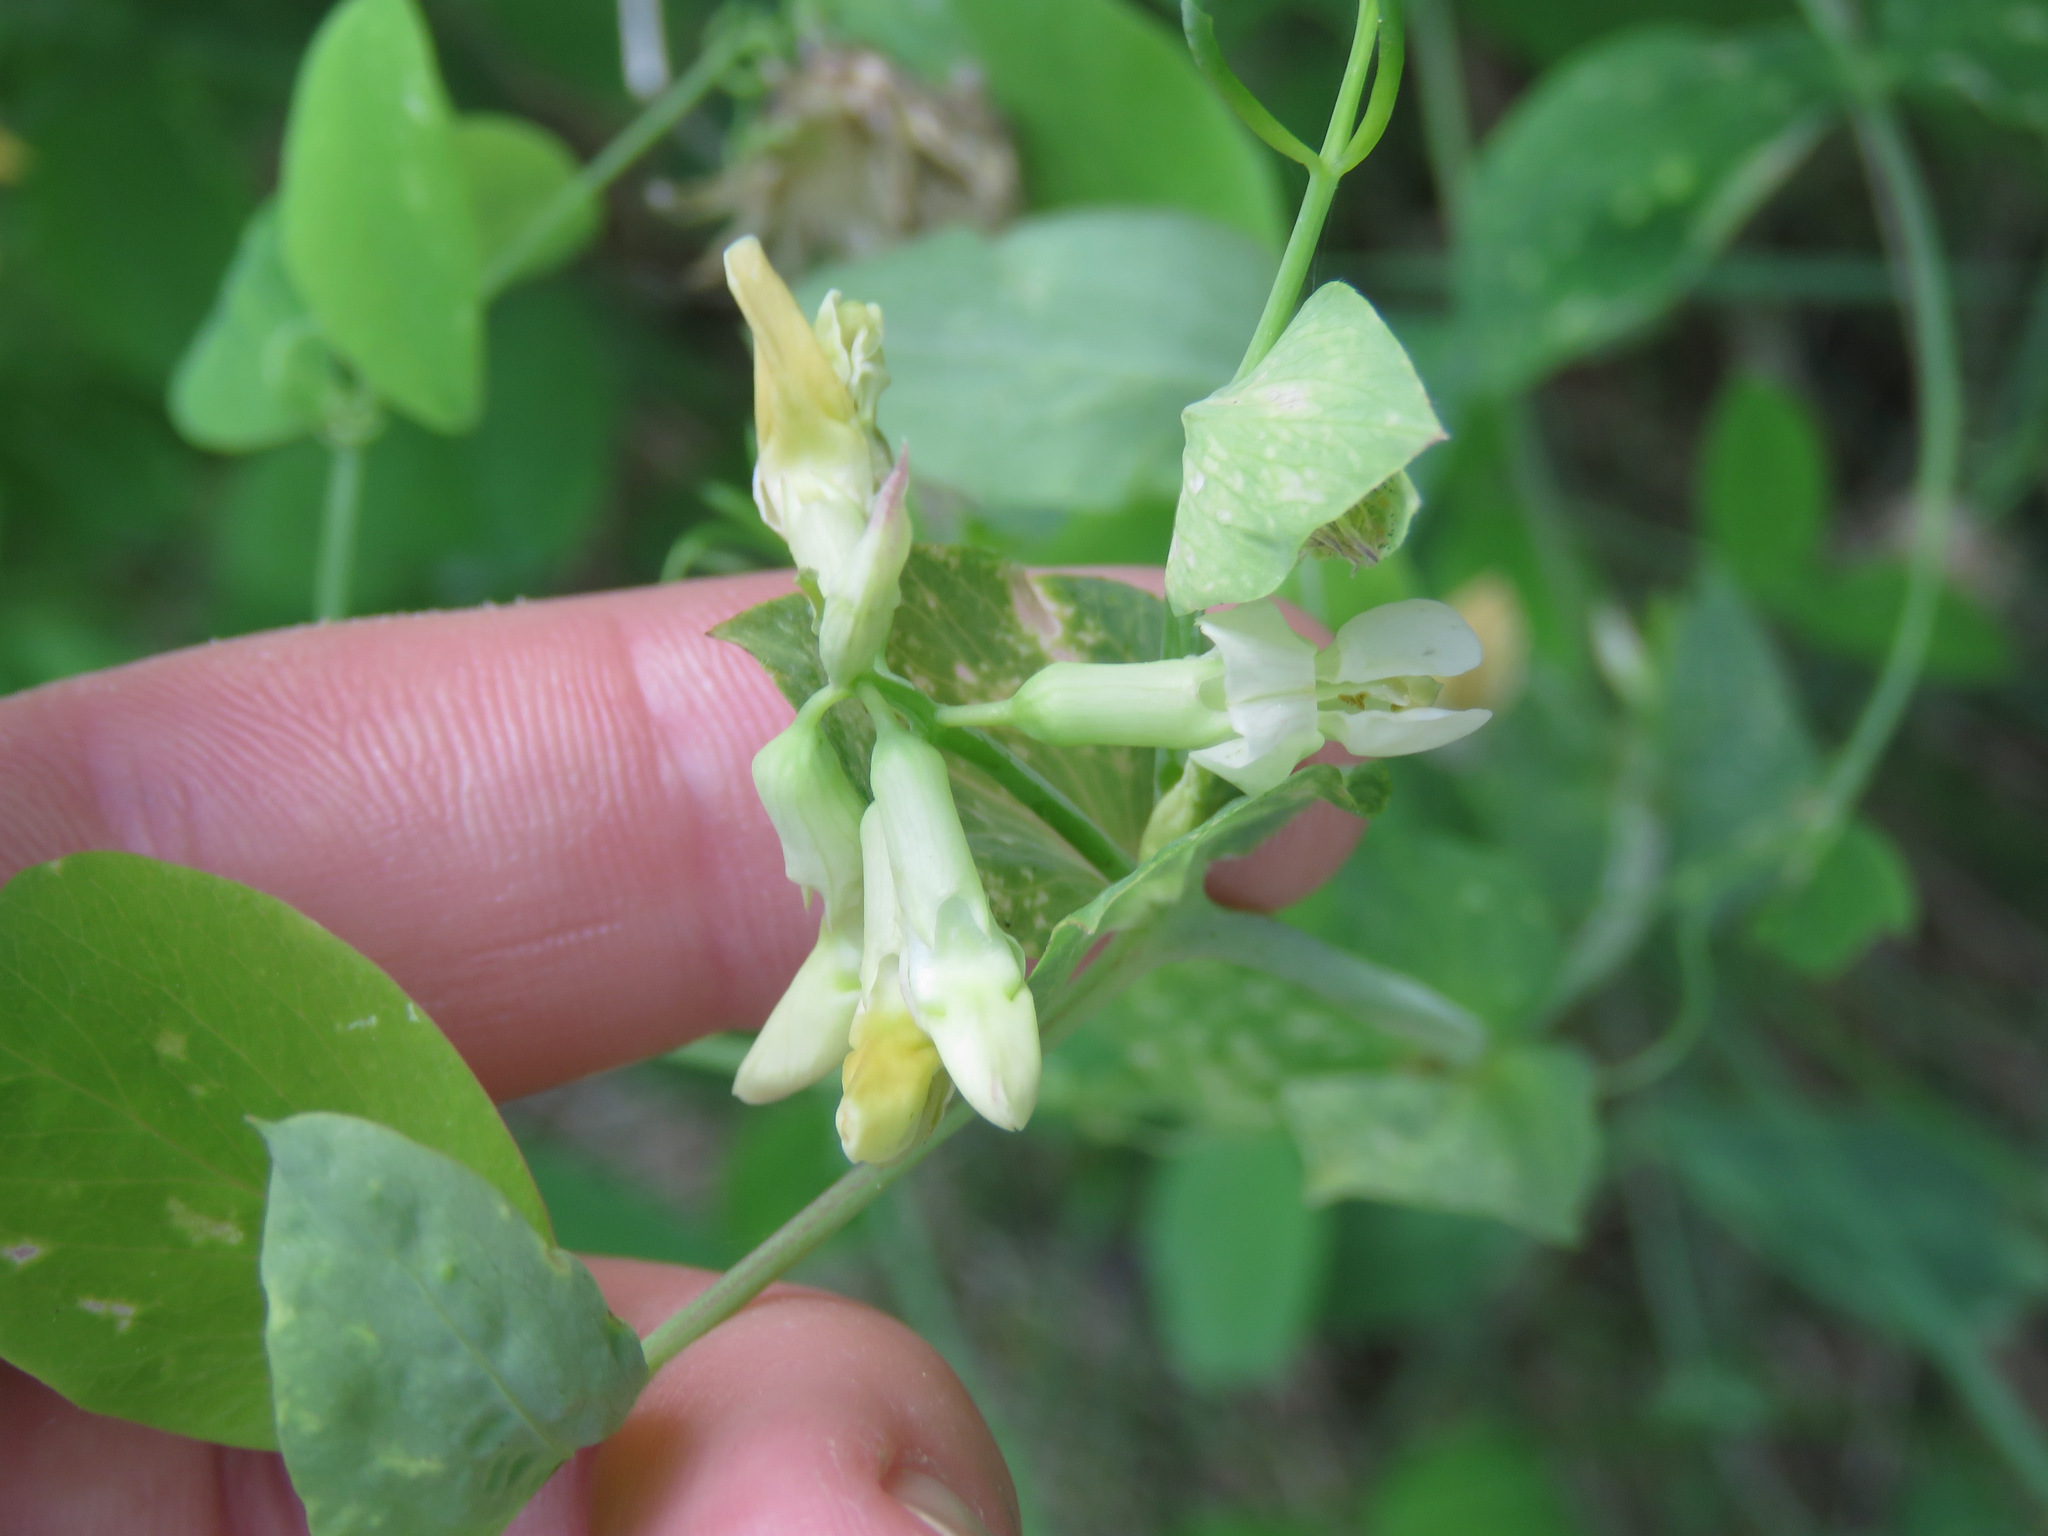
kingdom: Plantae
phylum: Tracheophyta
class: Magnoliopsida
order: Fabales
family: Fabaceae
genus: Lathyrus
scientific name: Lathyrus ochroleucus
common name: Pale vetchling
